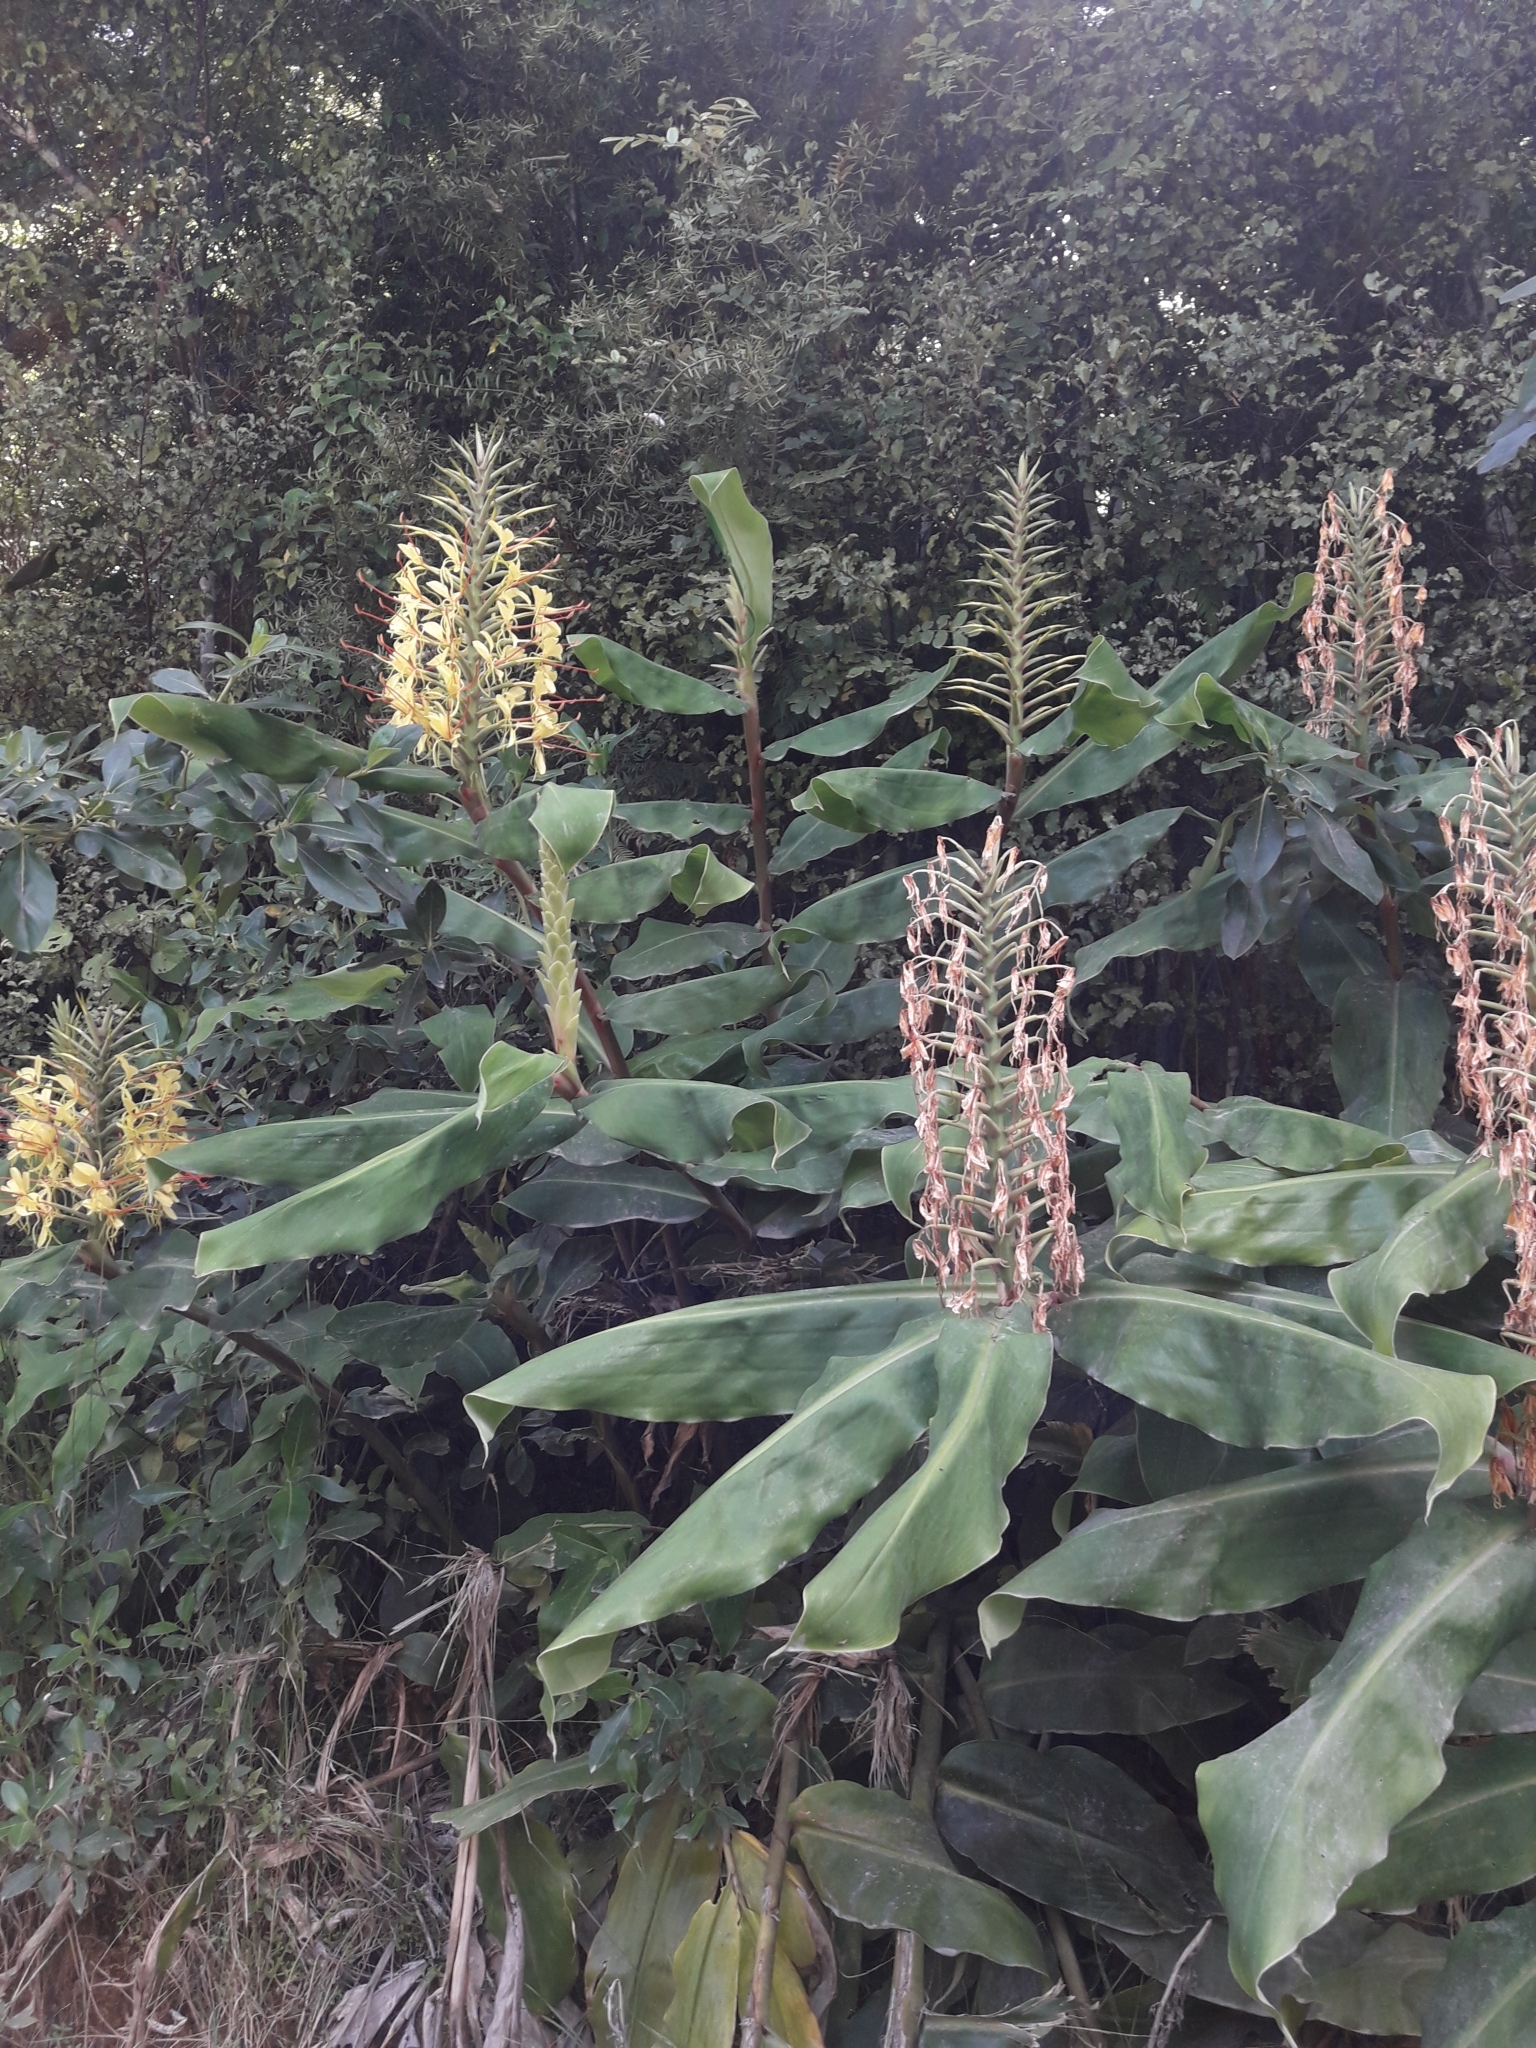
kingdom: Plantae
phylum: Tracheophyta
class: Liliopsida
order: Zingiberales
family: Zingiberaceae
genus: Hedychium
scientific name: Hedychium gardnerianum
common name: Himalayan ginger
